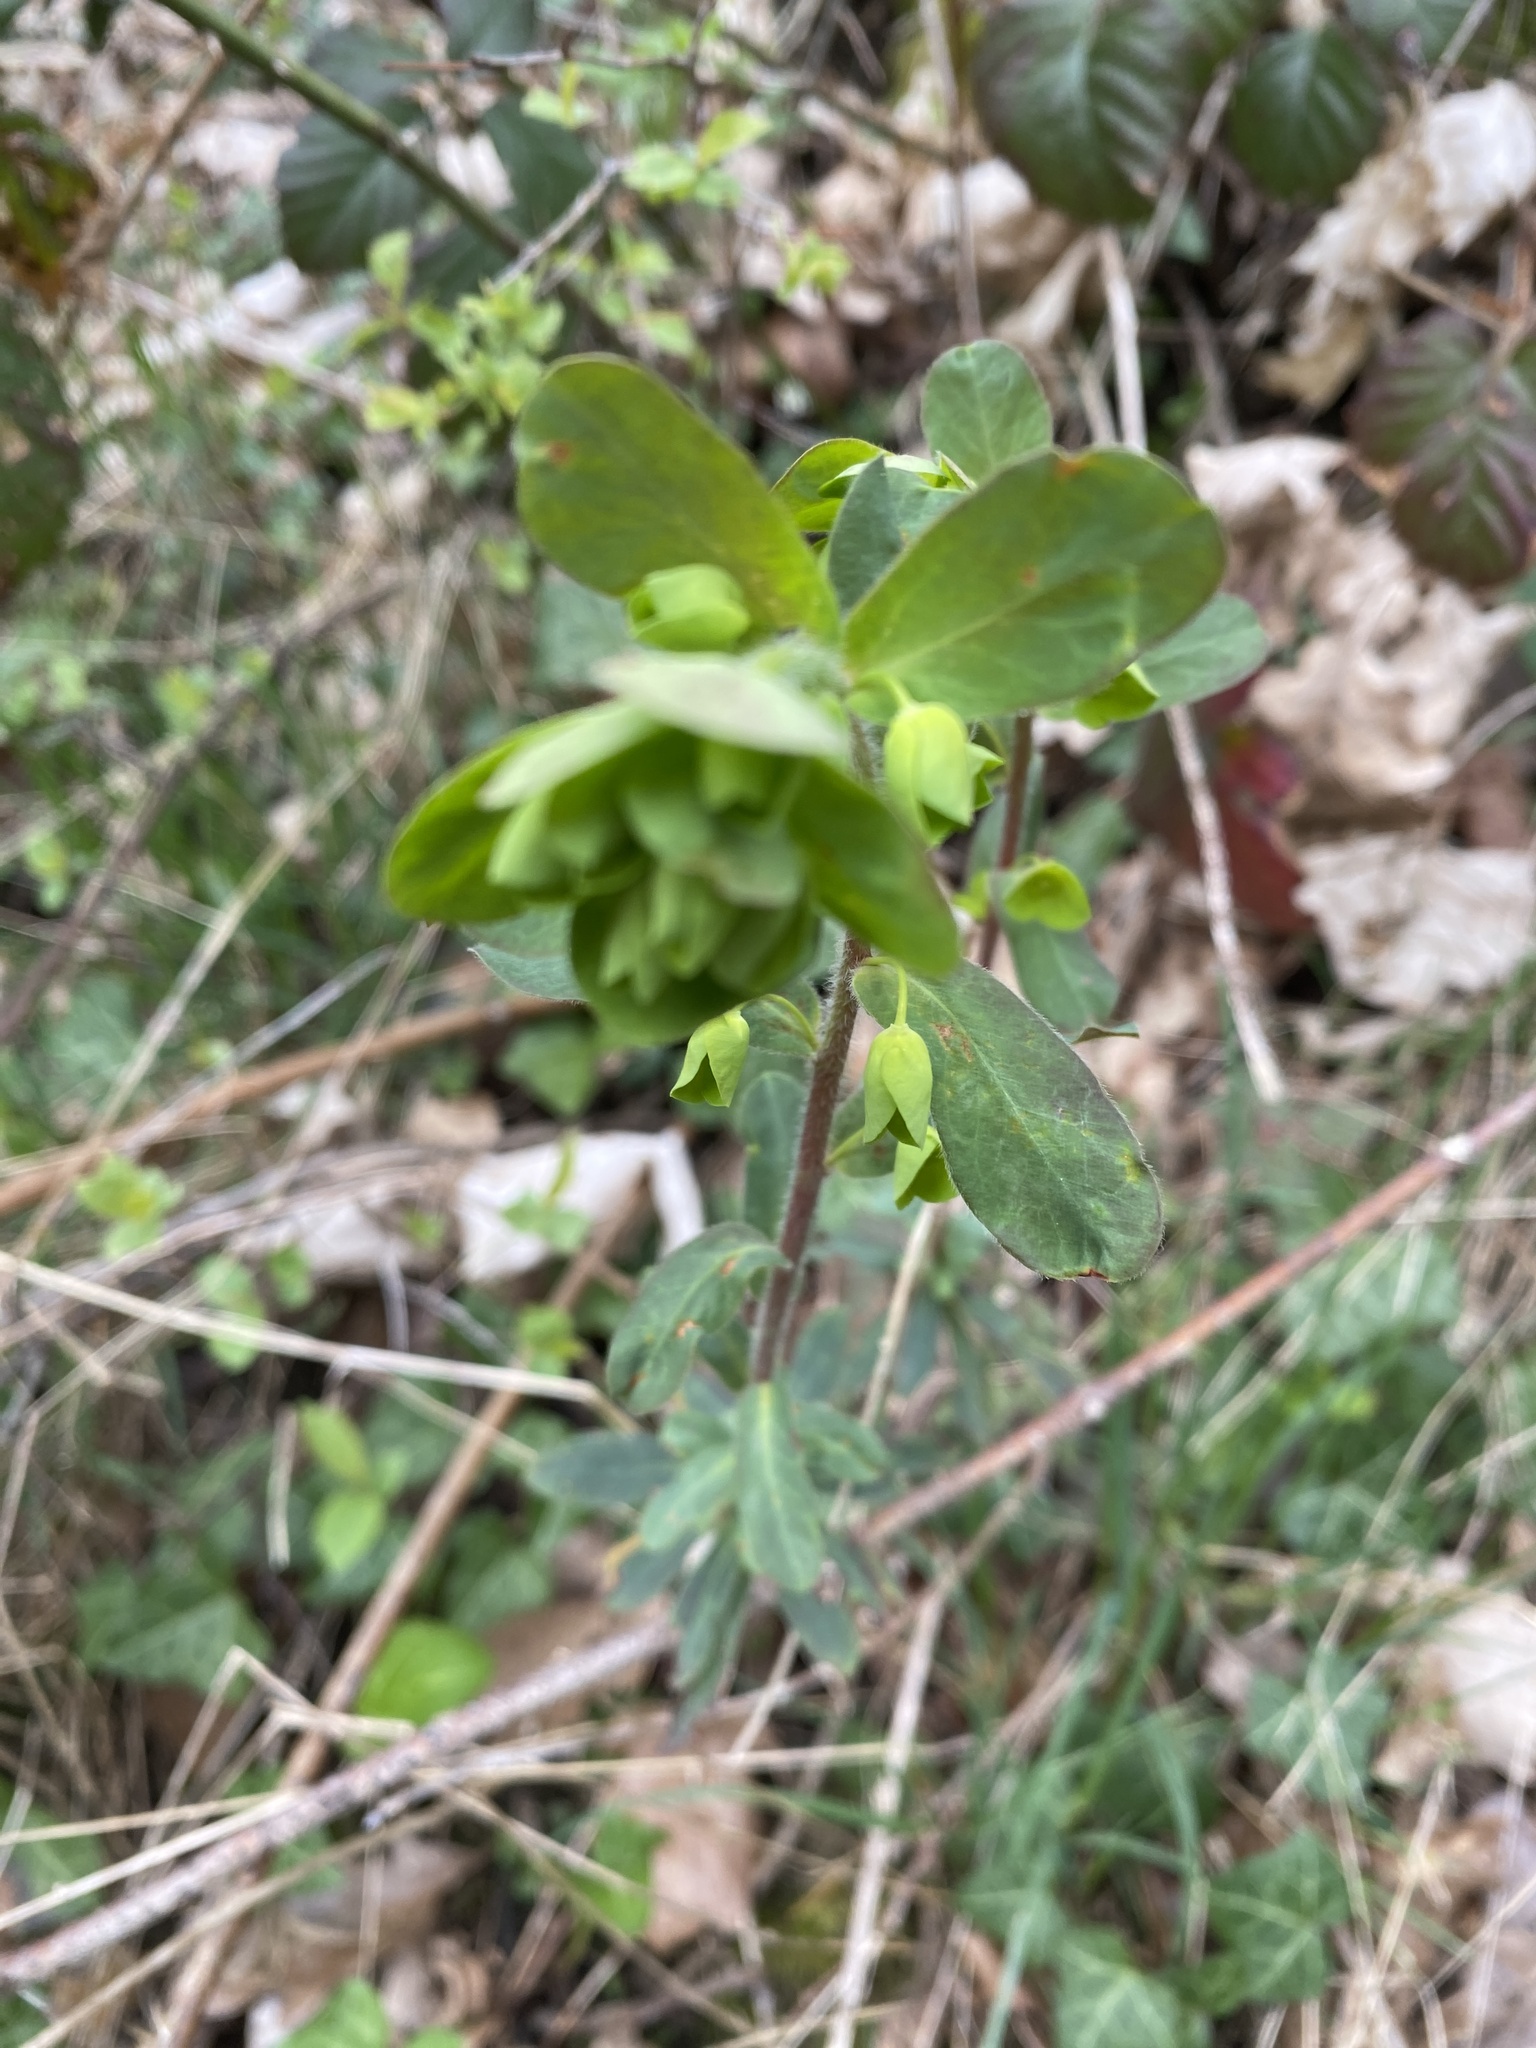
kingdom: Plantae
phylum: Tracheophyta
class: Magnoliopsida
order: Malpighiales
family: Euphorbiaceae
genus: Euphorbia
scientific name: Euphorbia amygdaloides
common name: Wood spurge
